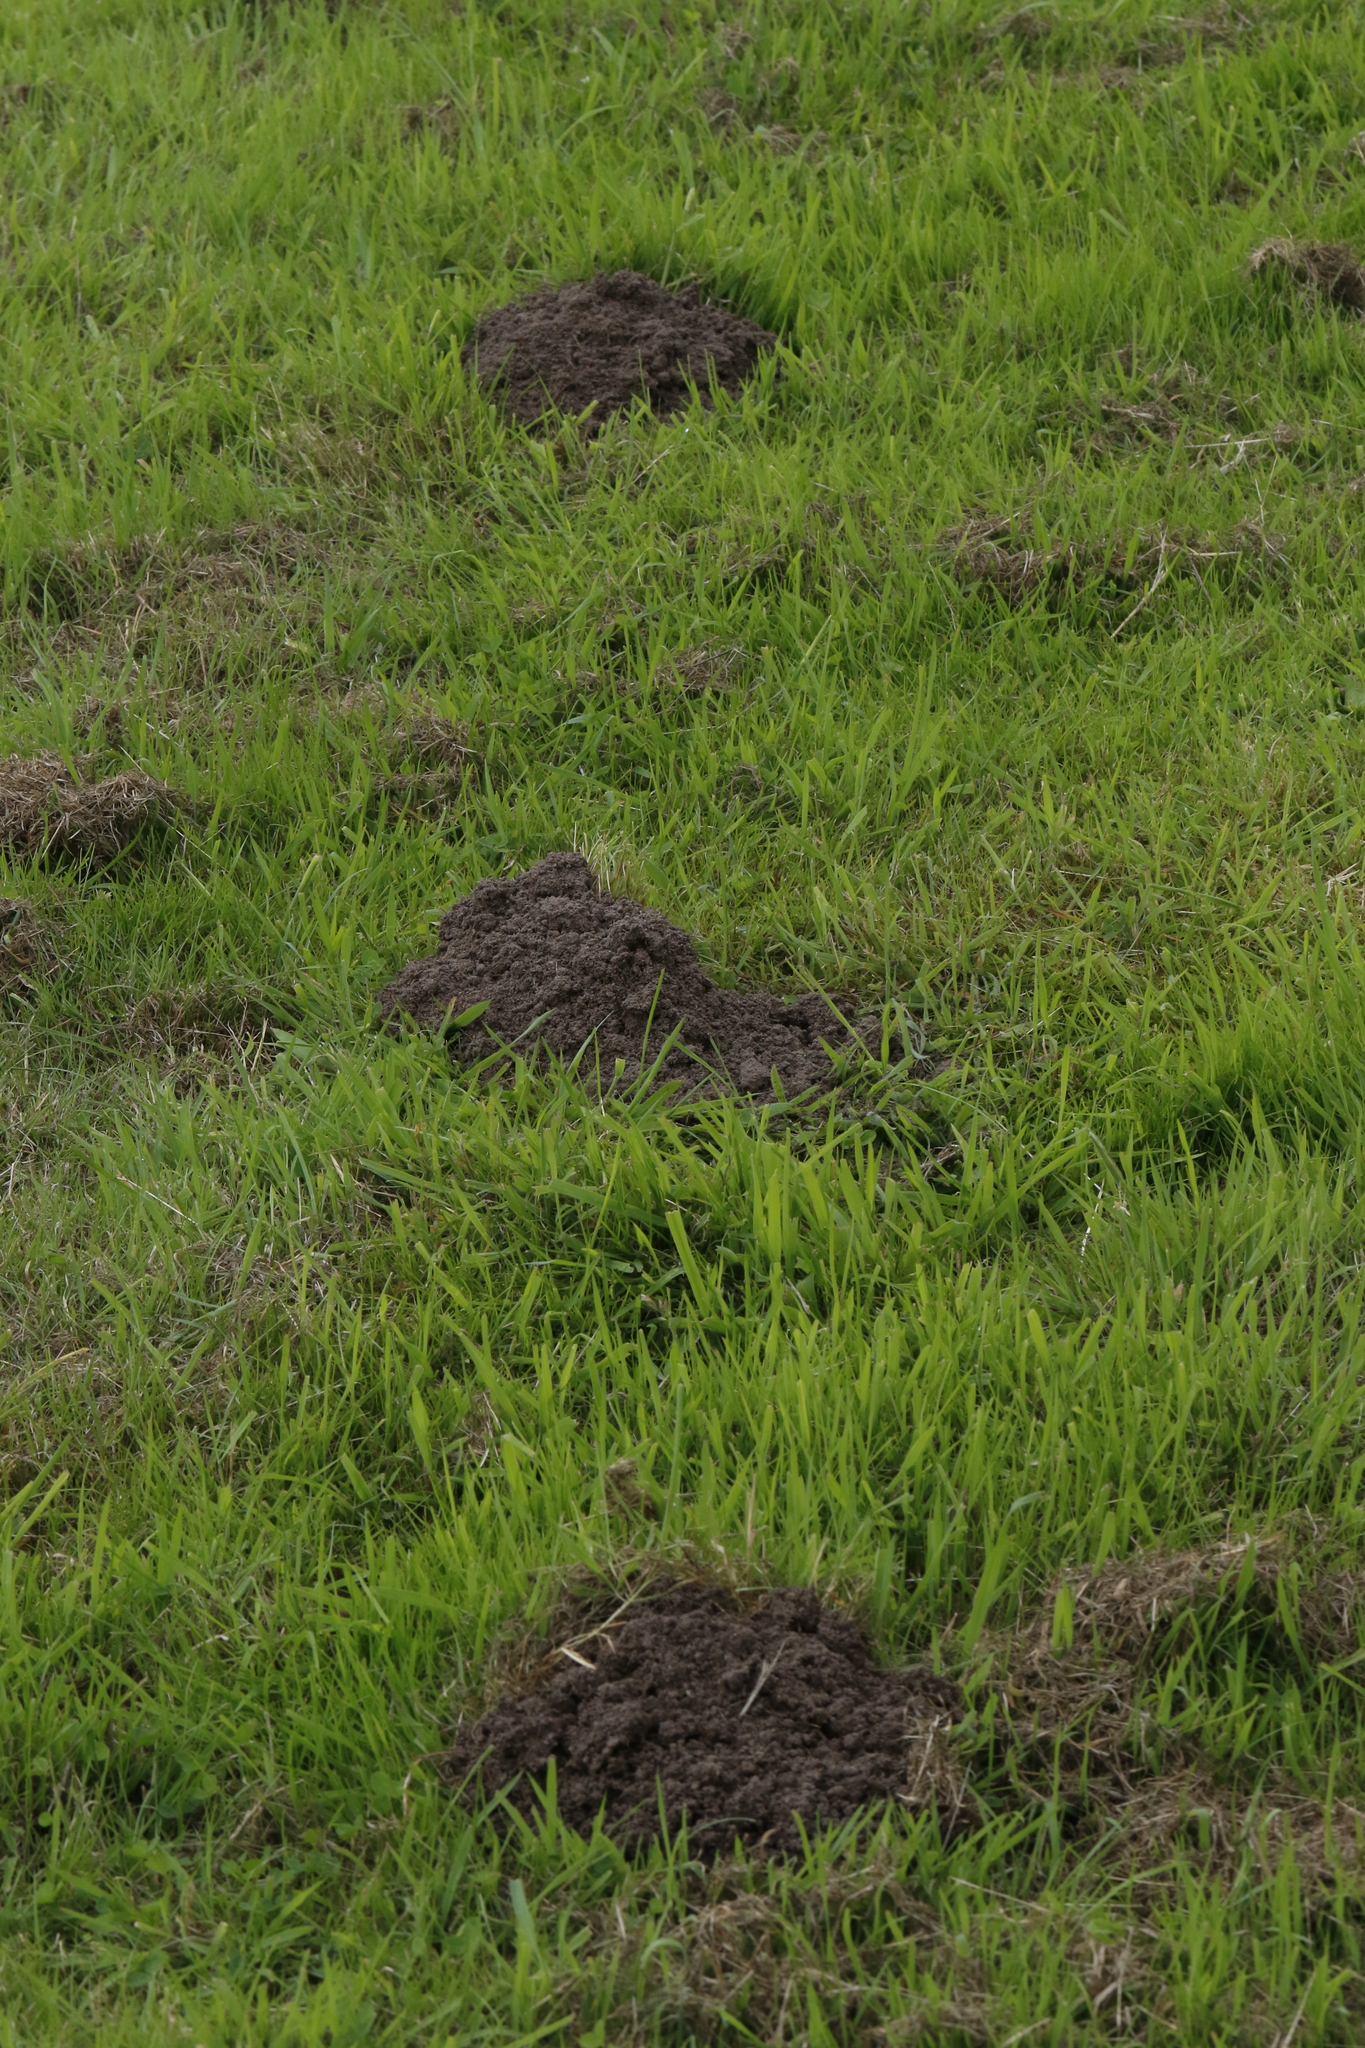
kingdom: Animalia
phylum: Chordata
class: Mammalia
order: Soricomorpha
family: Talpidae
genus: Talpa
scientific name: Talpa europaea
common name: European mole
